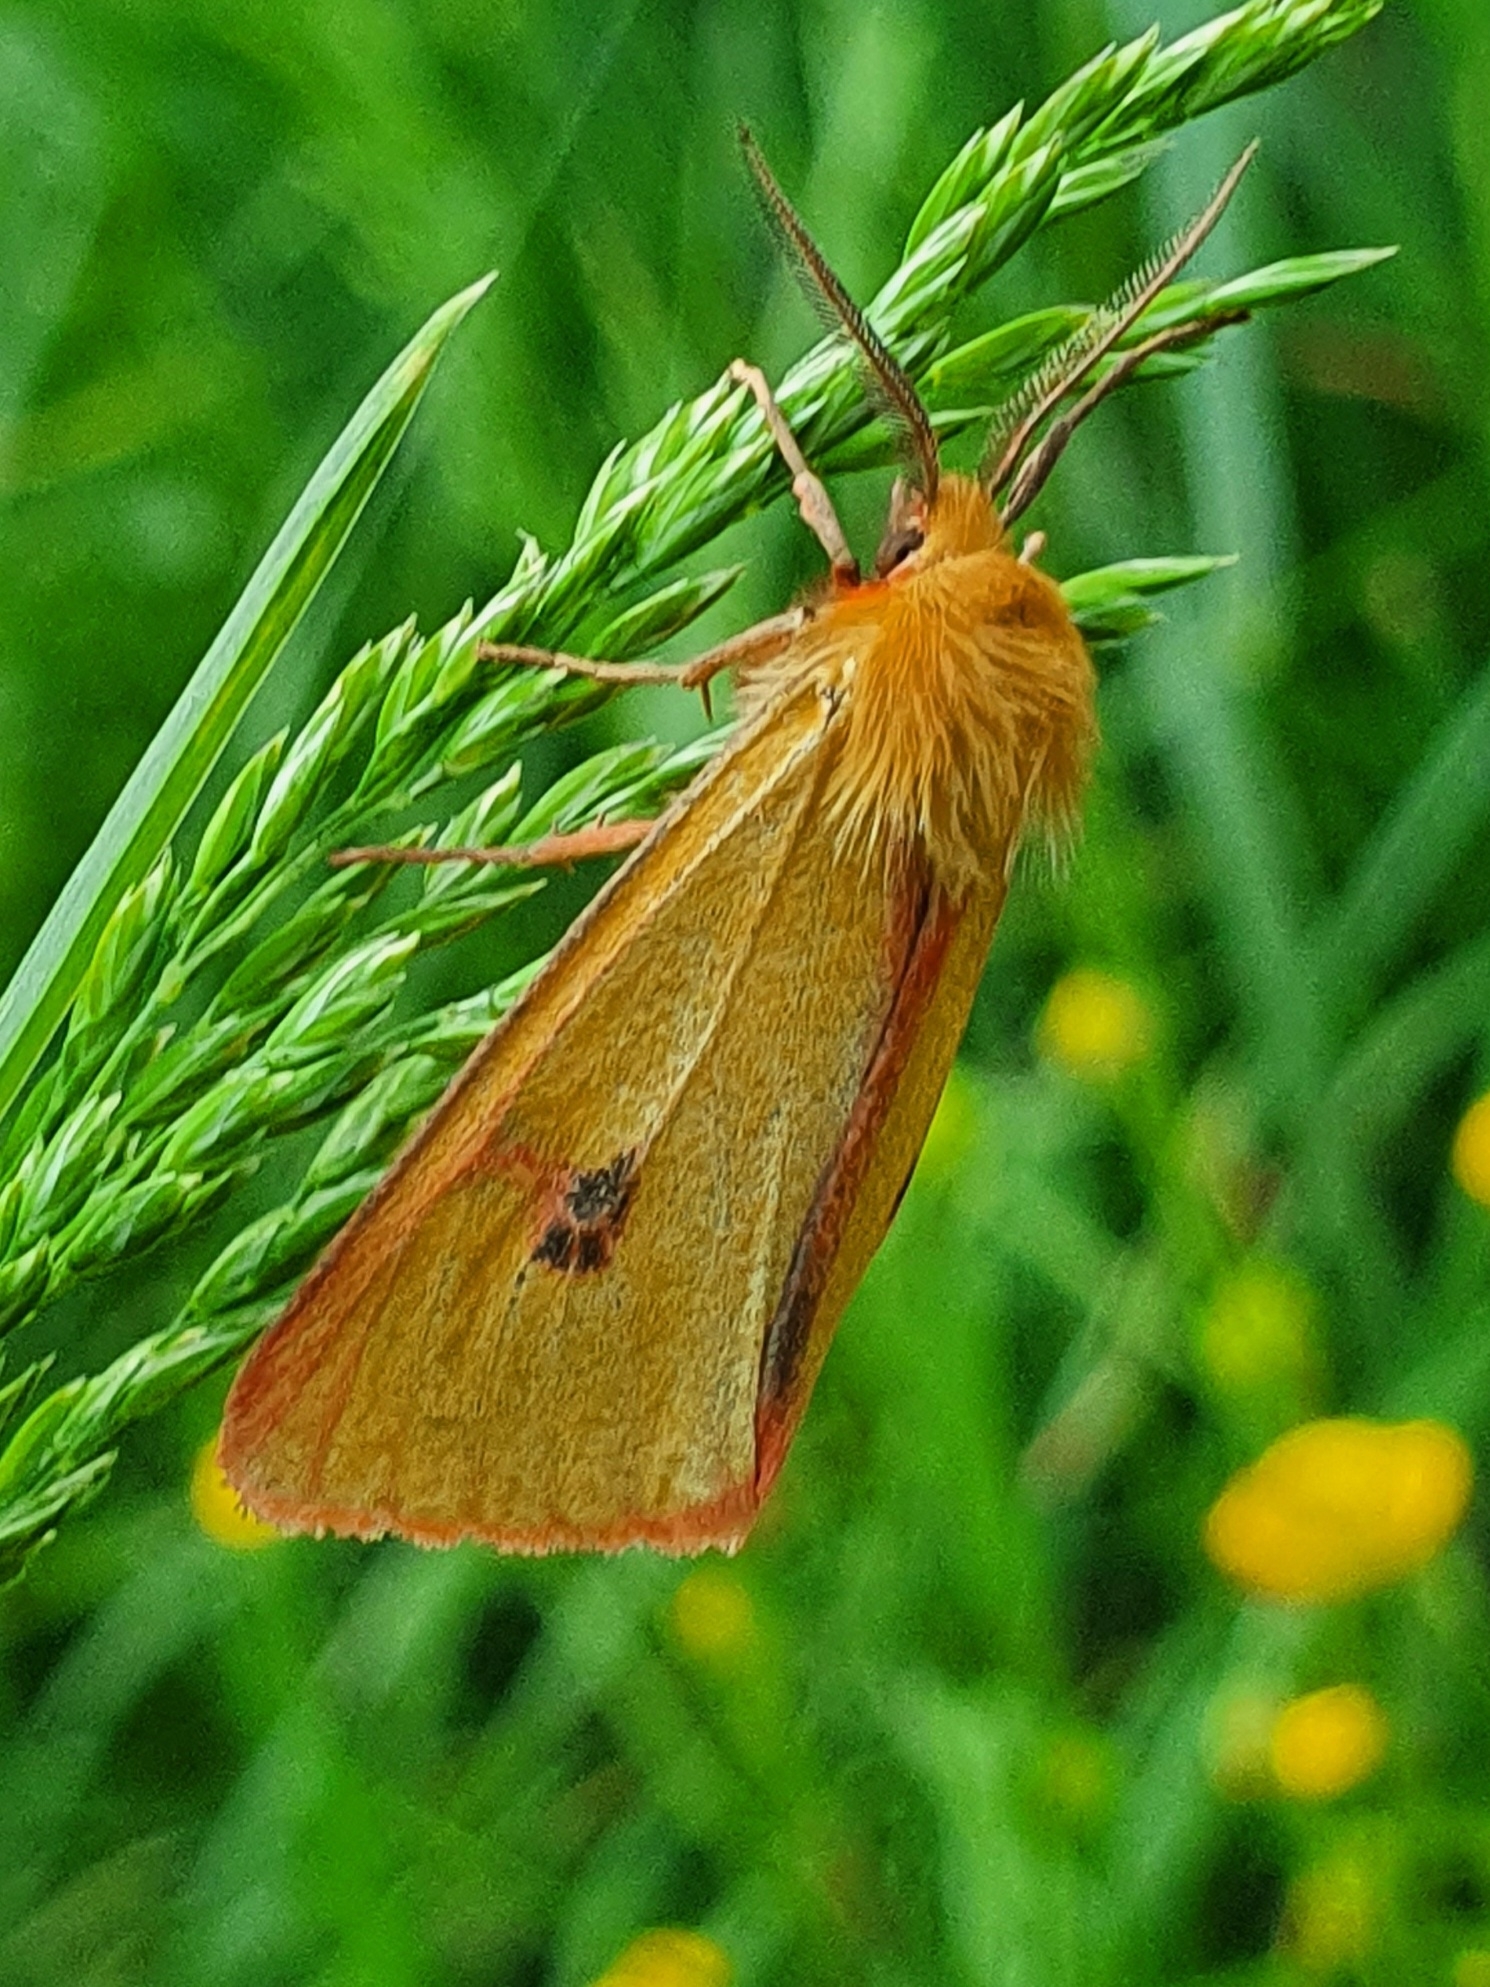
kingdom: Animalia
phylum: Arthropoda
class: Insecta
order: Lepidoptera
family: Erebidae
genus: Diacrisia
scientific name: Diacrisia sannio
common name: Clouded buff
